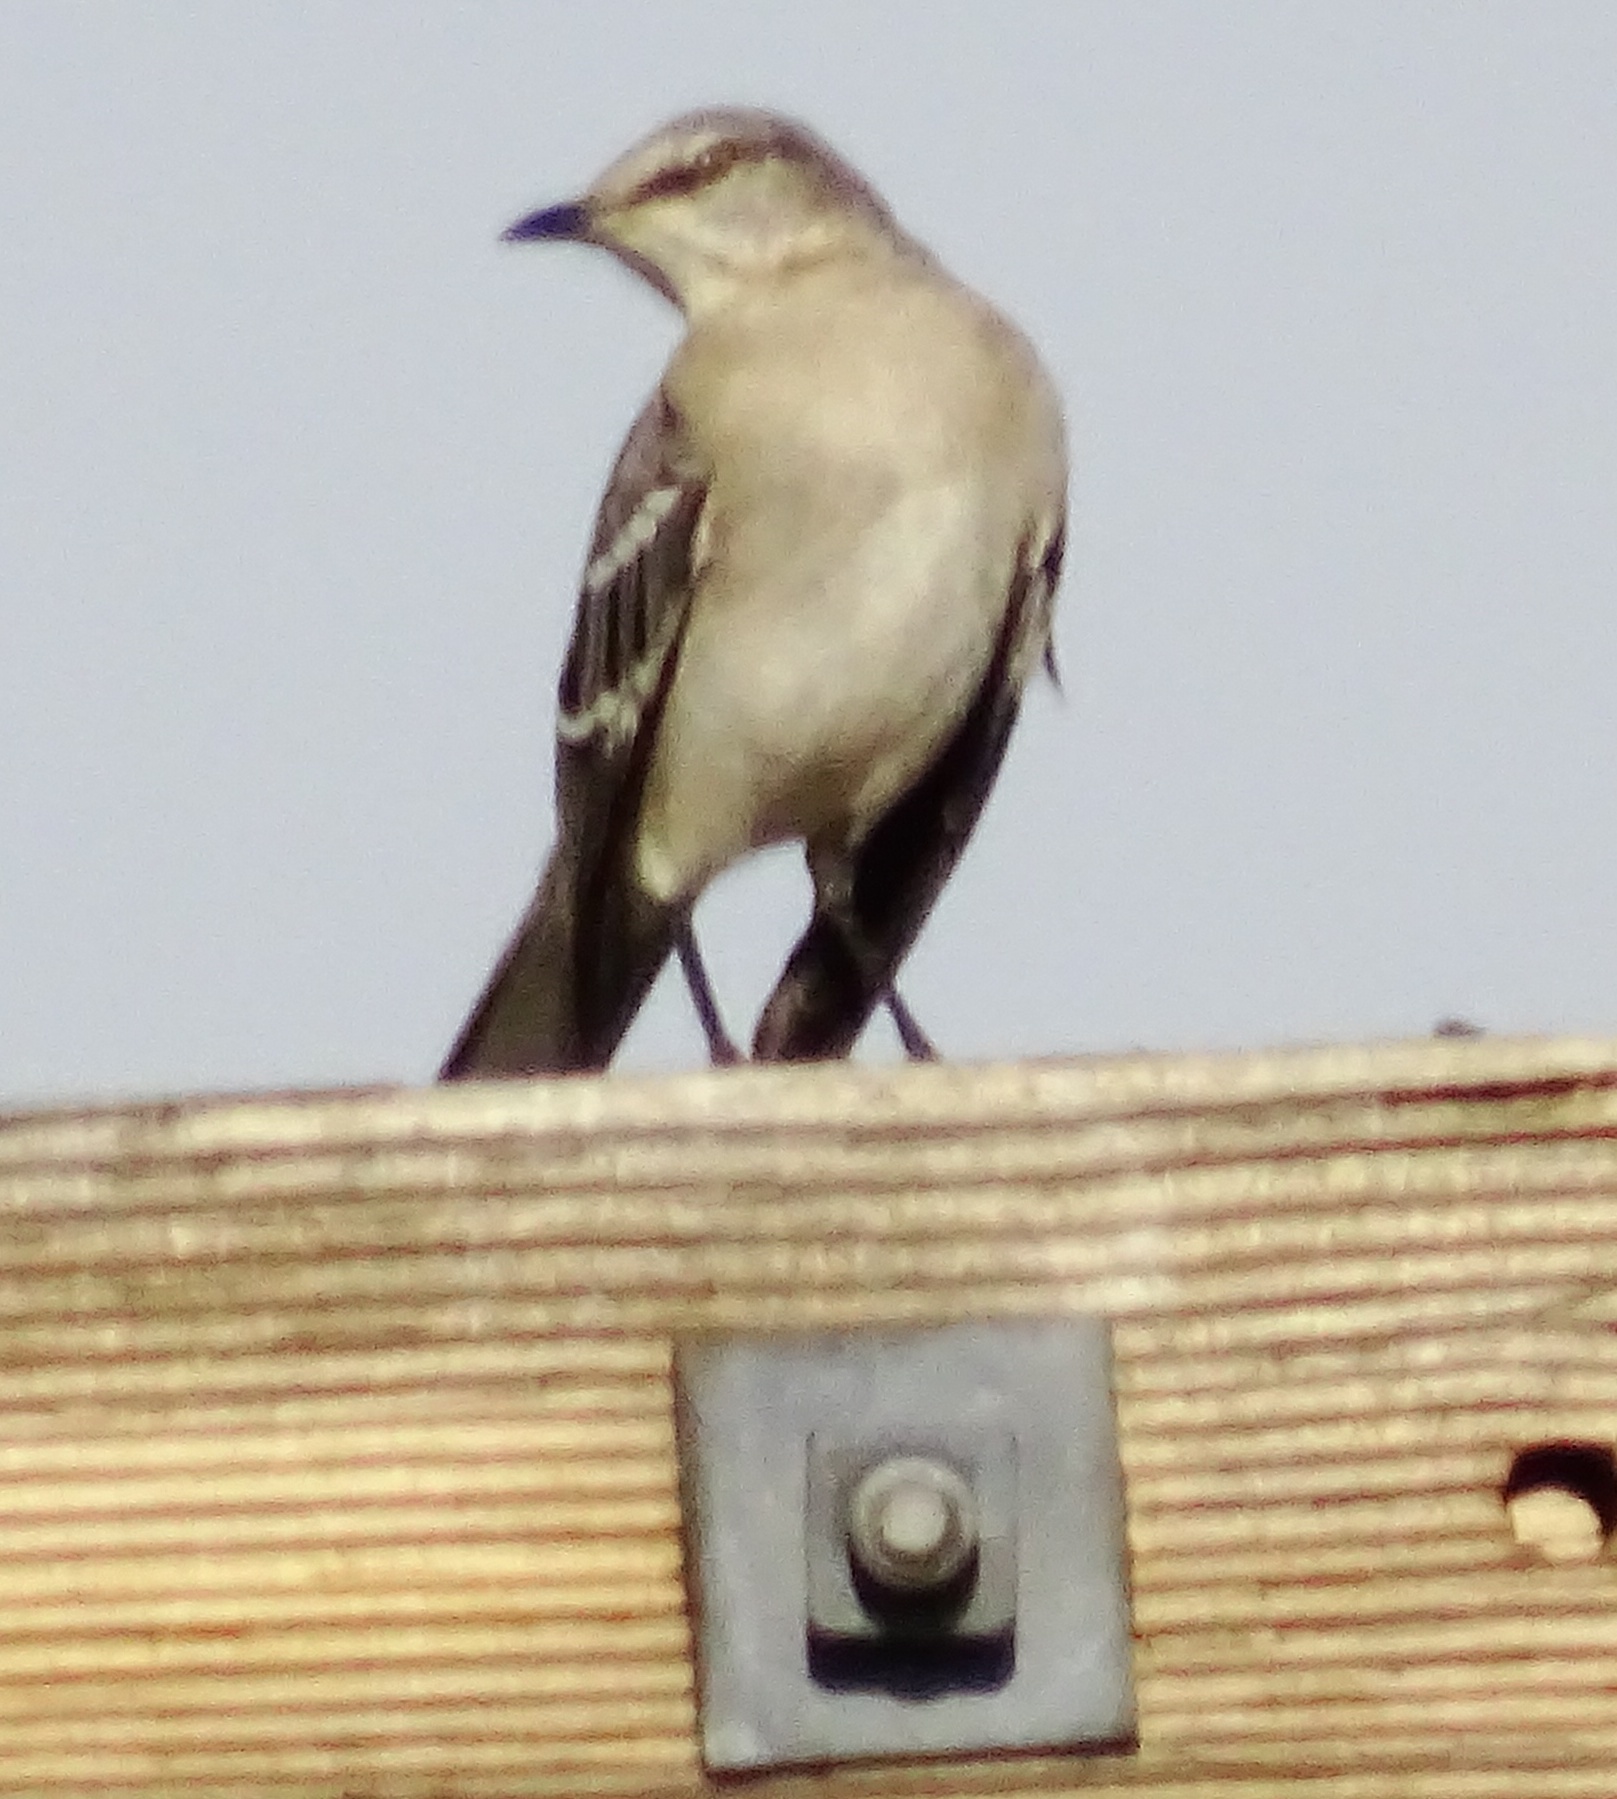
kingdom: Animalia
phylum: Chordata
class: Aves
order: Passeriformes
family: Mimidae
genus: Mimus
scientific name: Mimus polyglottos
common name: Northern mockingbird
